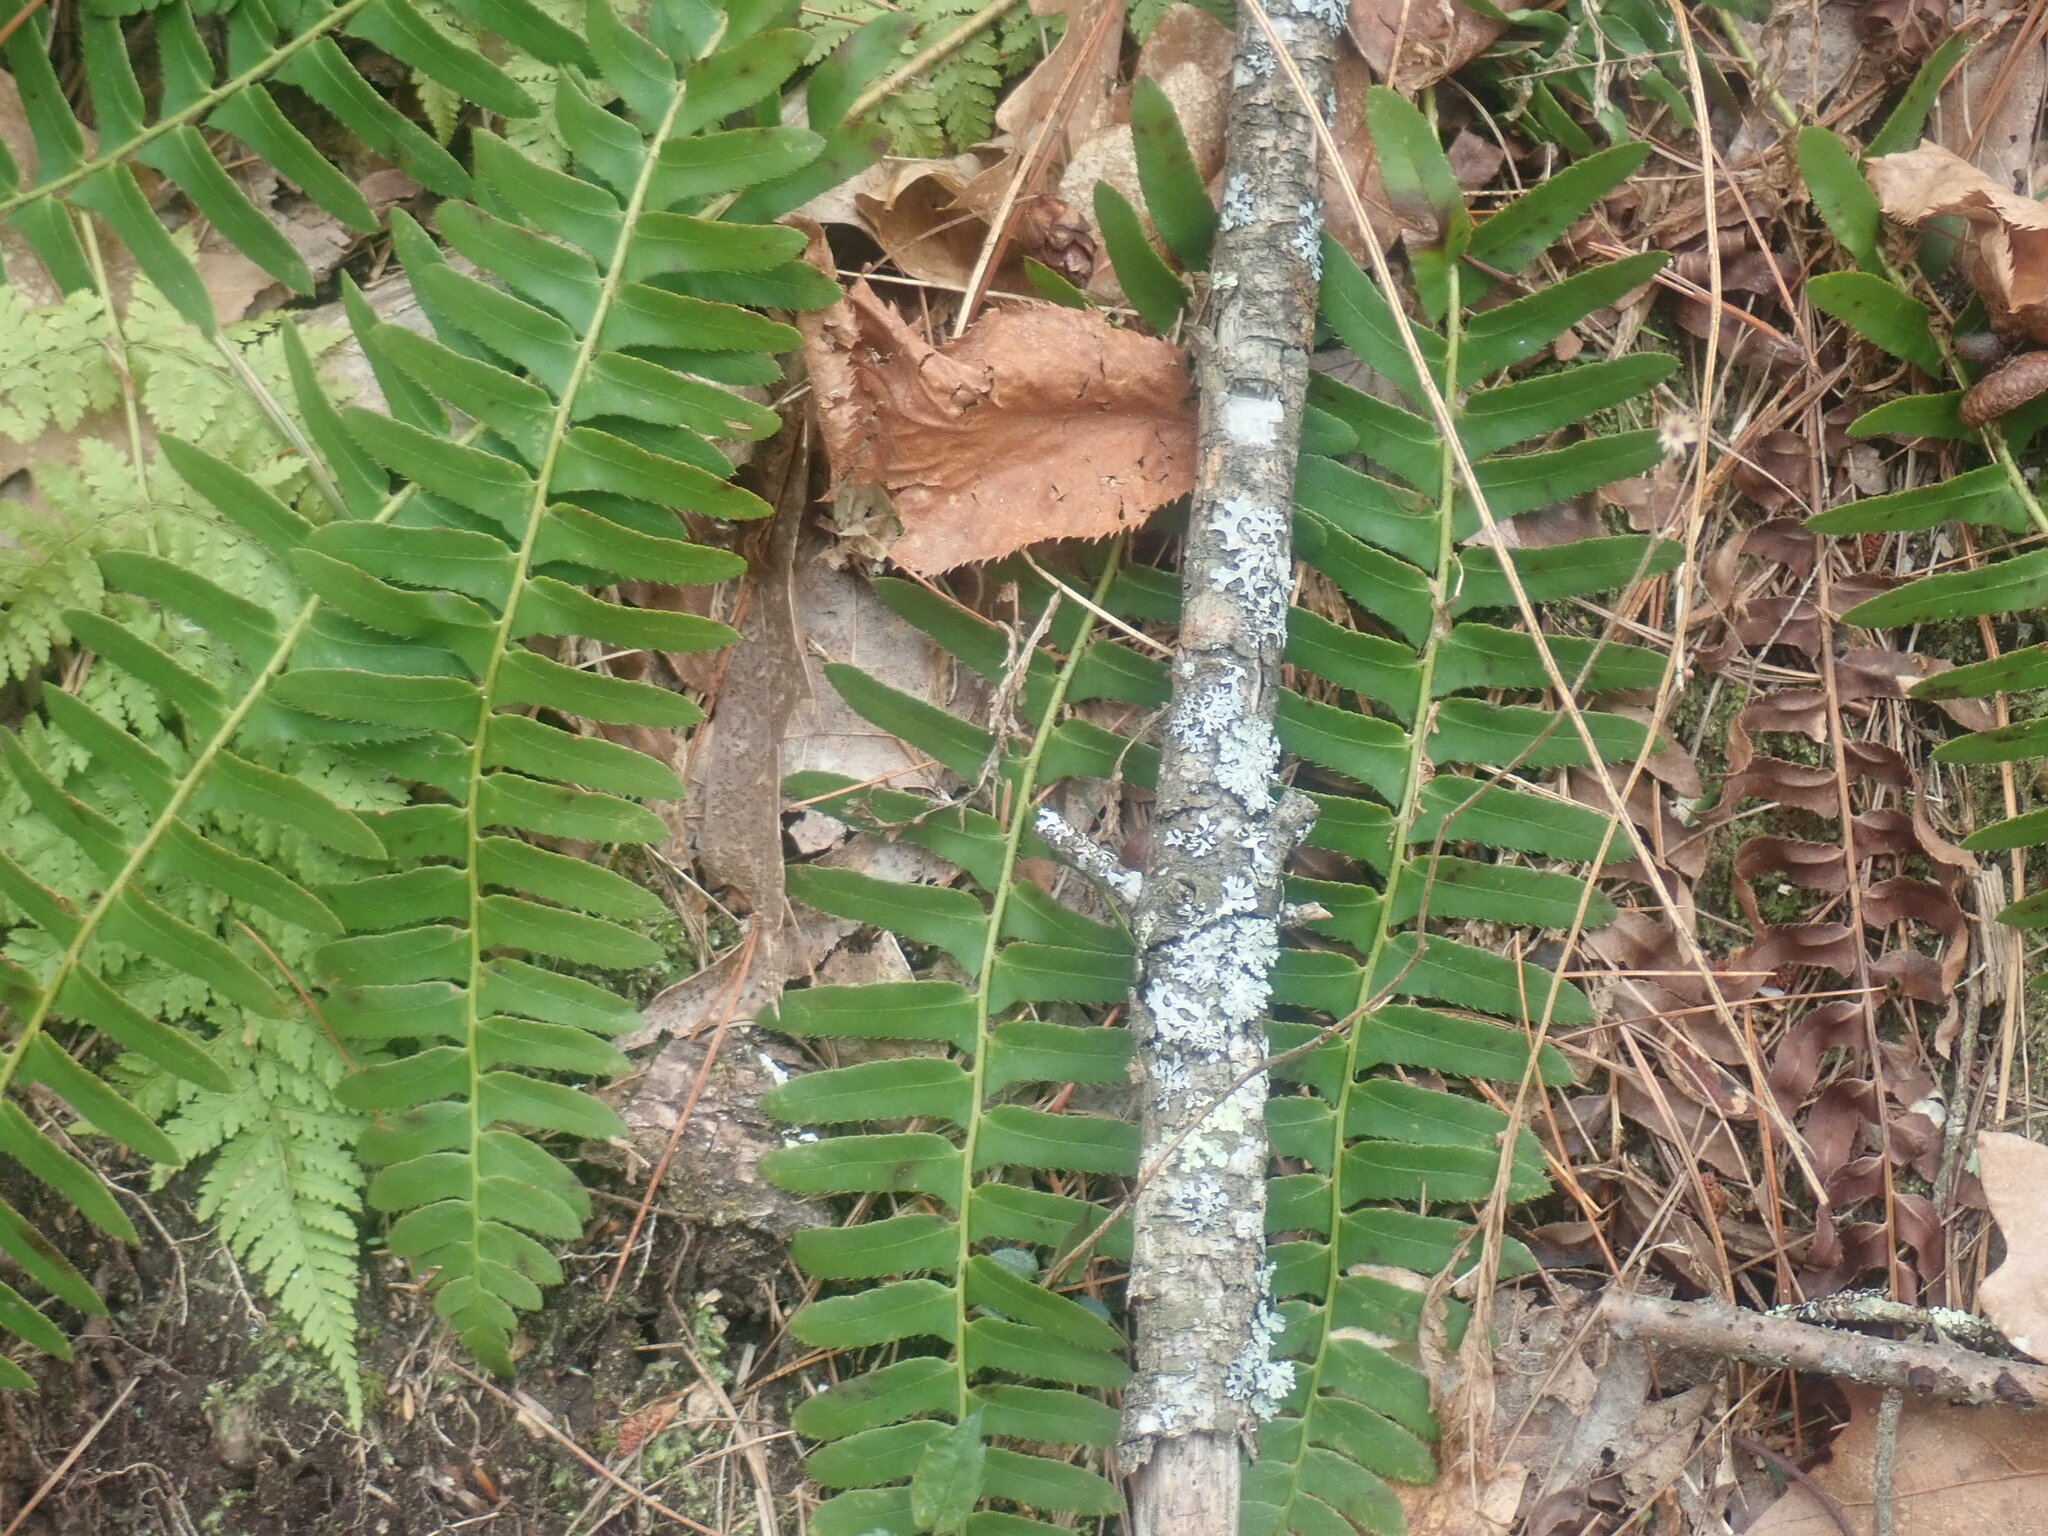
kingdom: Plantae
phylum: Tracheophyta
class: Polypodiopsida
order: Polypodiales
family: Dryopteridaceae
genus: Polystichum
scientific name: Polystichum acrostichoides
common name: Christmas fern
